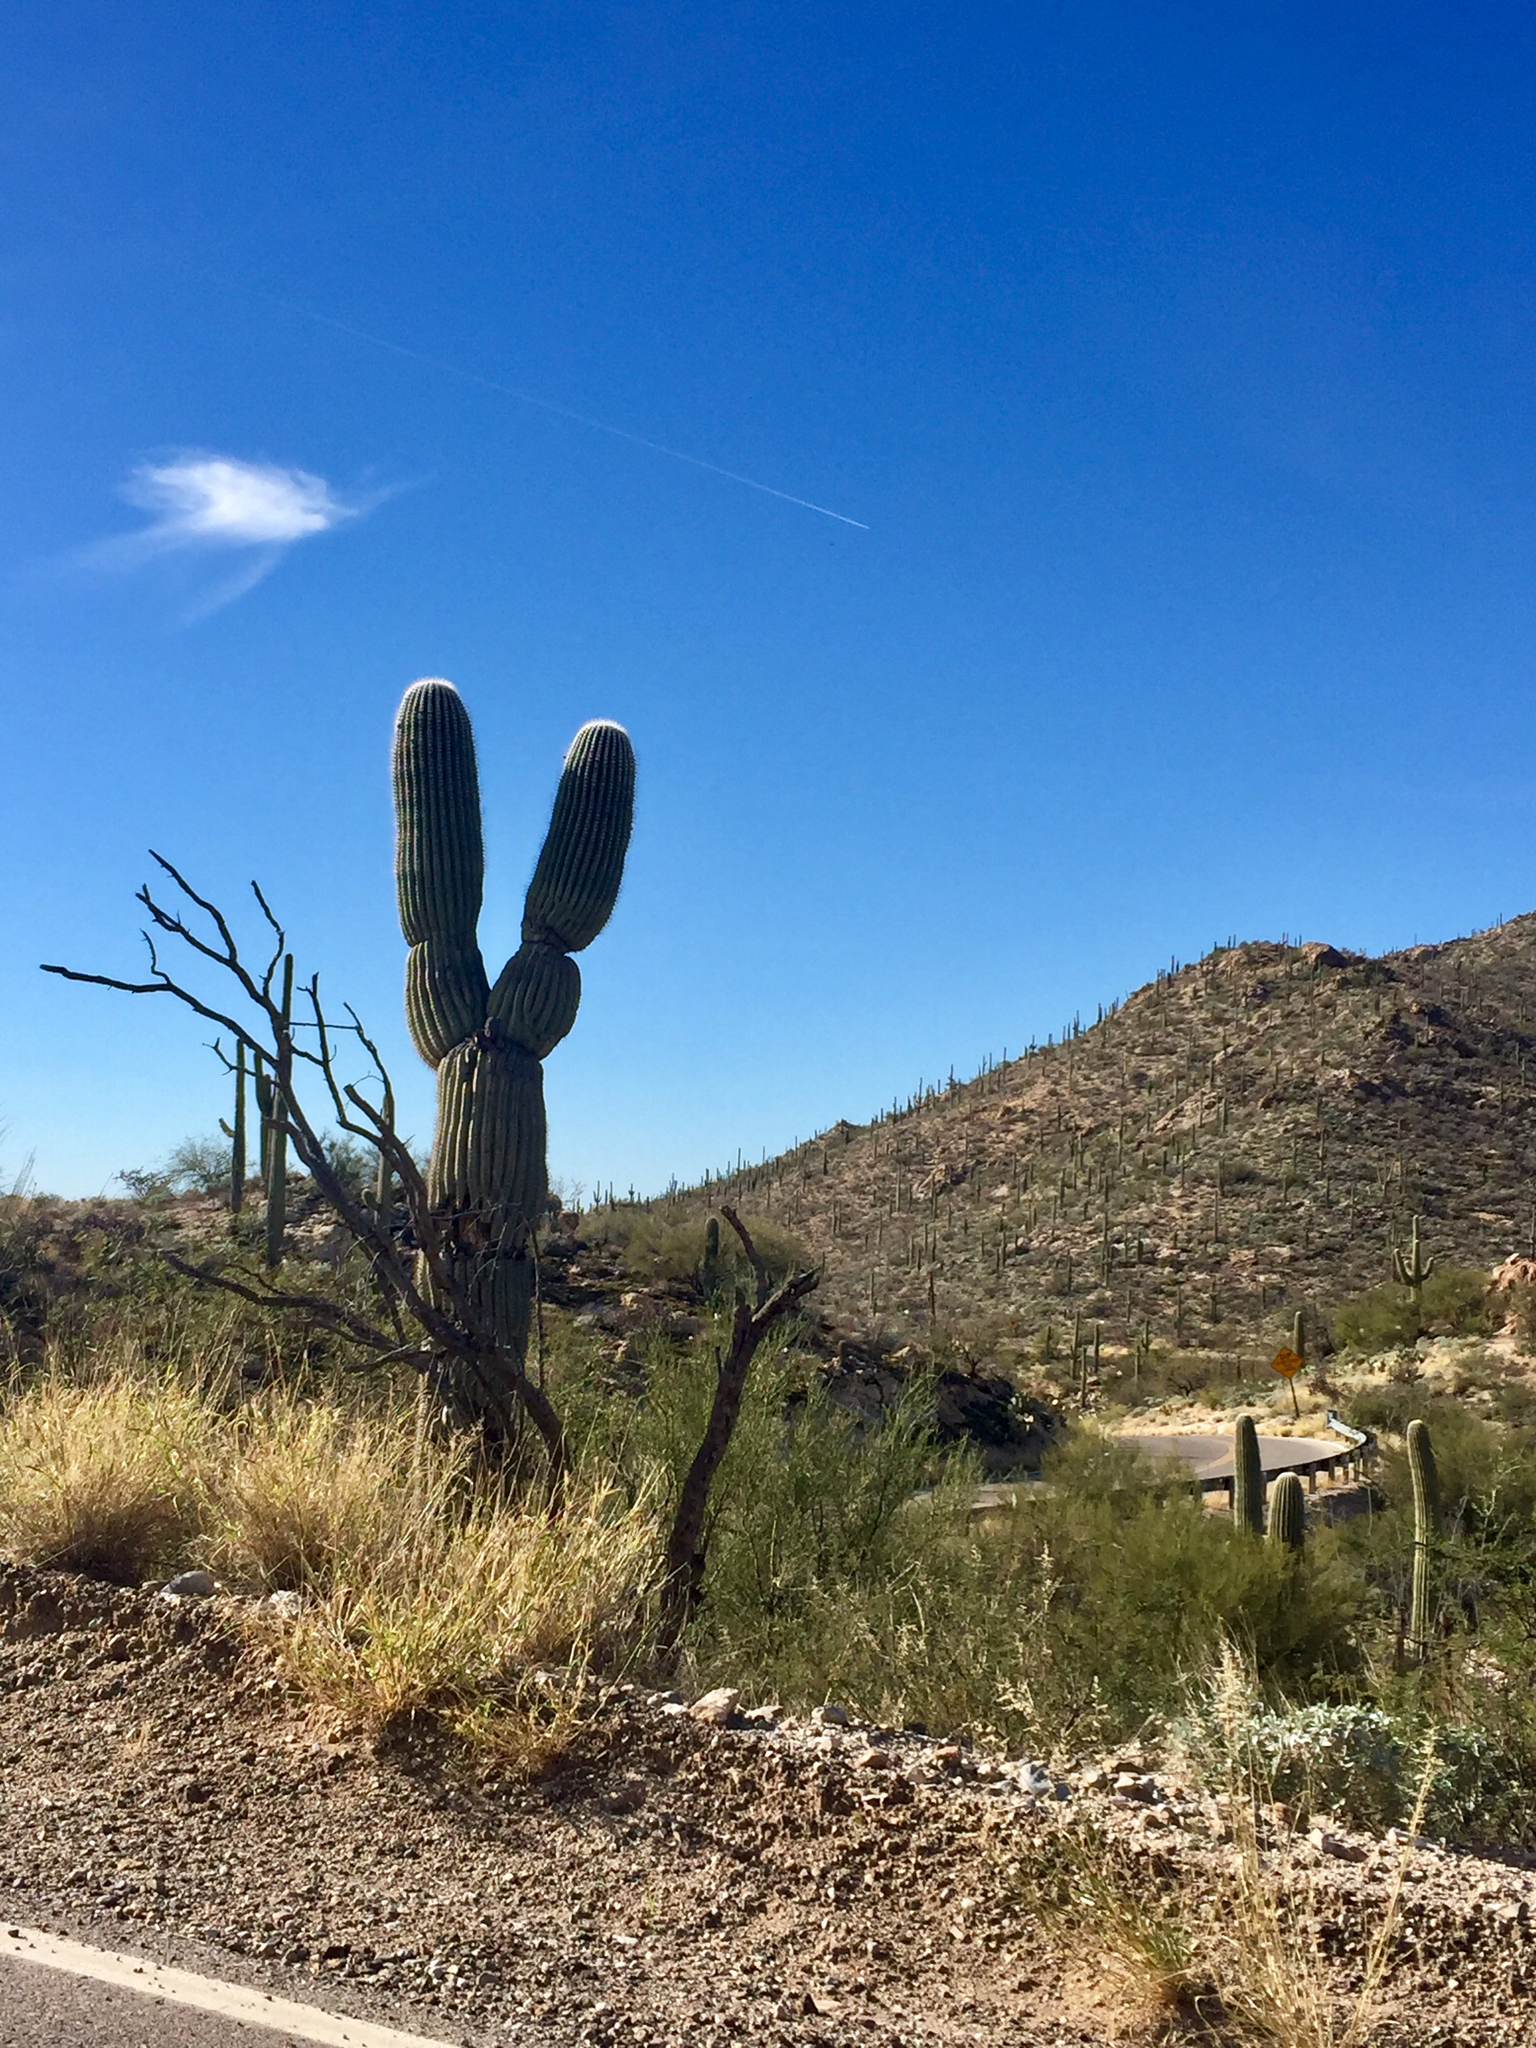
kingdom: Plantae
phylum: Tracheophyta
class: Magnoliopsida
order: Caryophyllales
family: Cactaceae
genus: Carnegiea
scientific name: Carnegiea gigantea
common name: Saguaro
